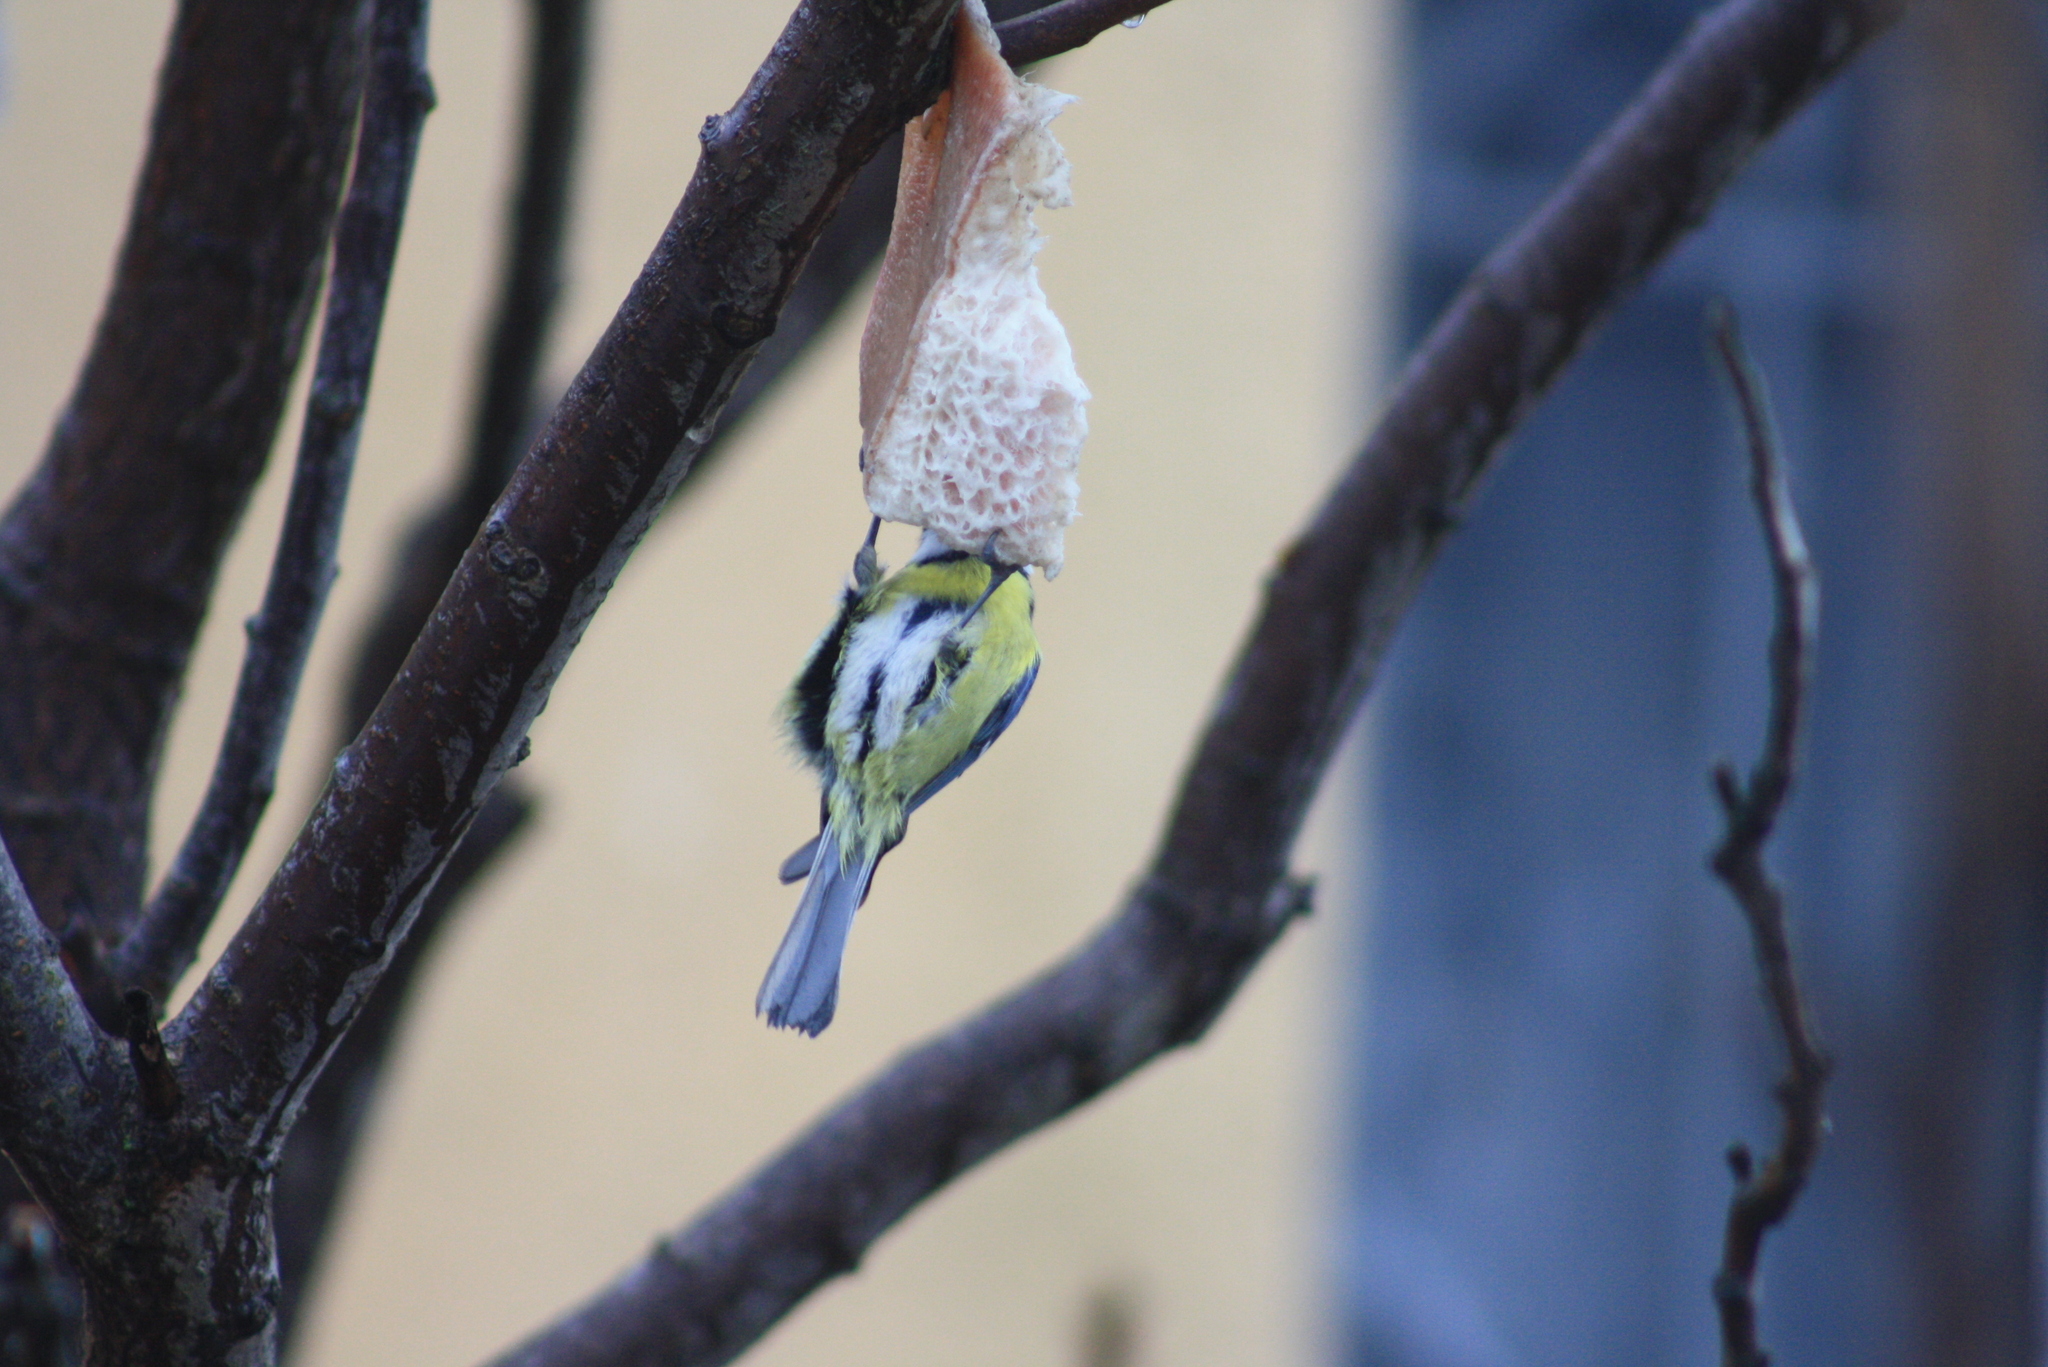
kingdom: Animalia
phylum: Chordata
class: Aves
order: Passeriformes
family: Paridae
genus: Cyanistes
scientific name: Cyanistes caeruleus
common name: Eurasian blue tit
